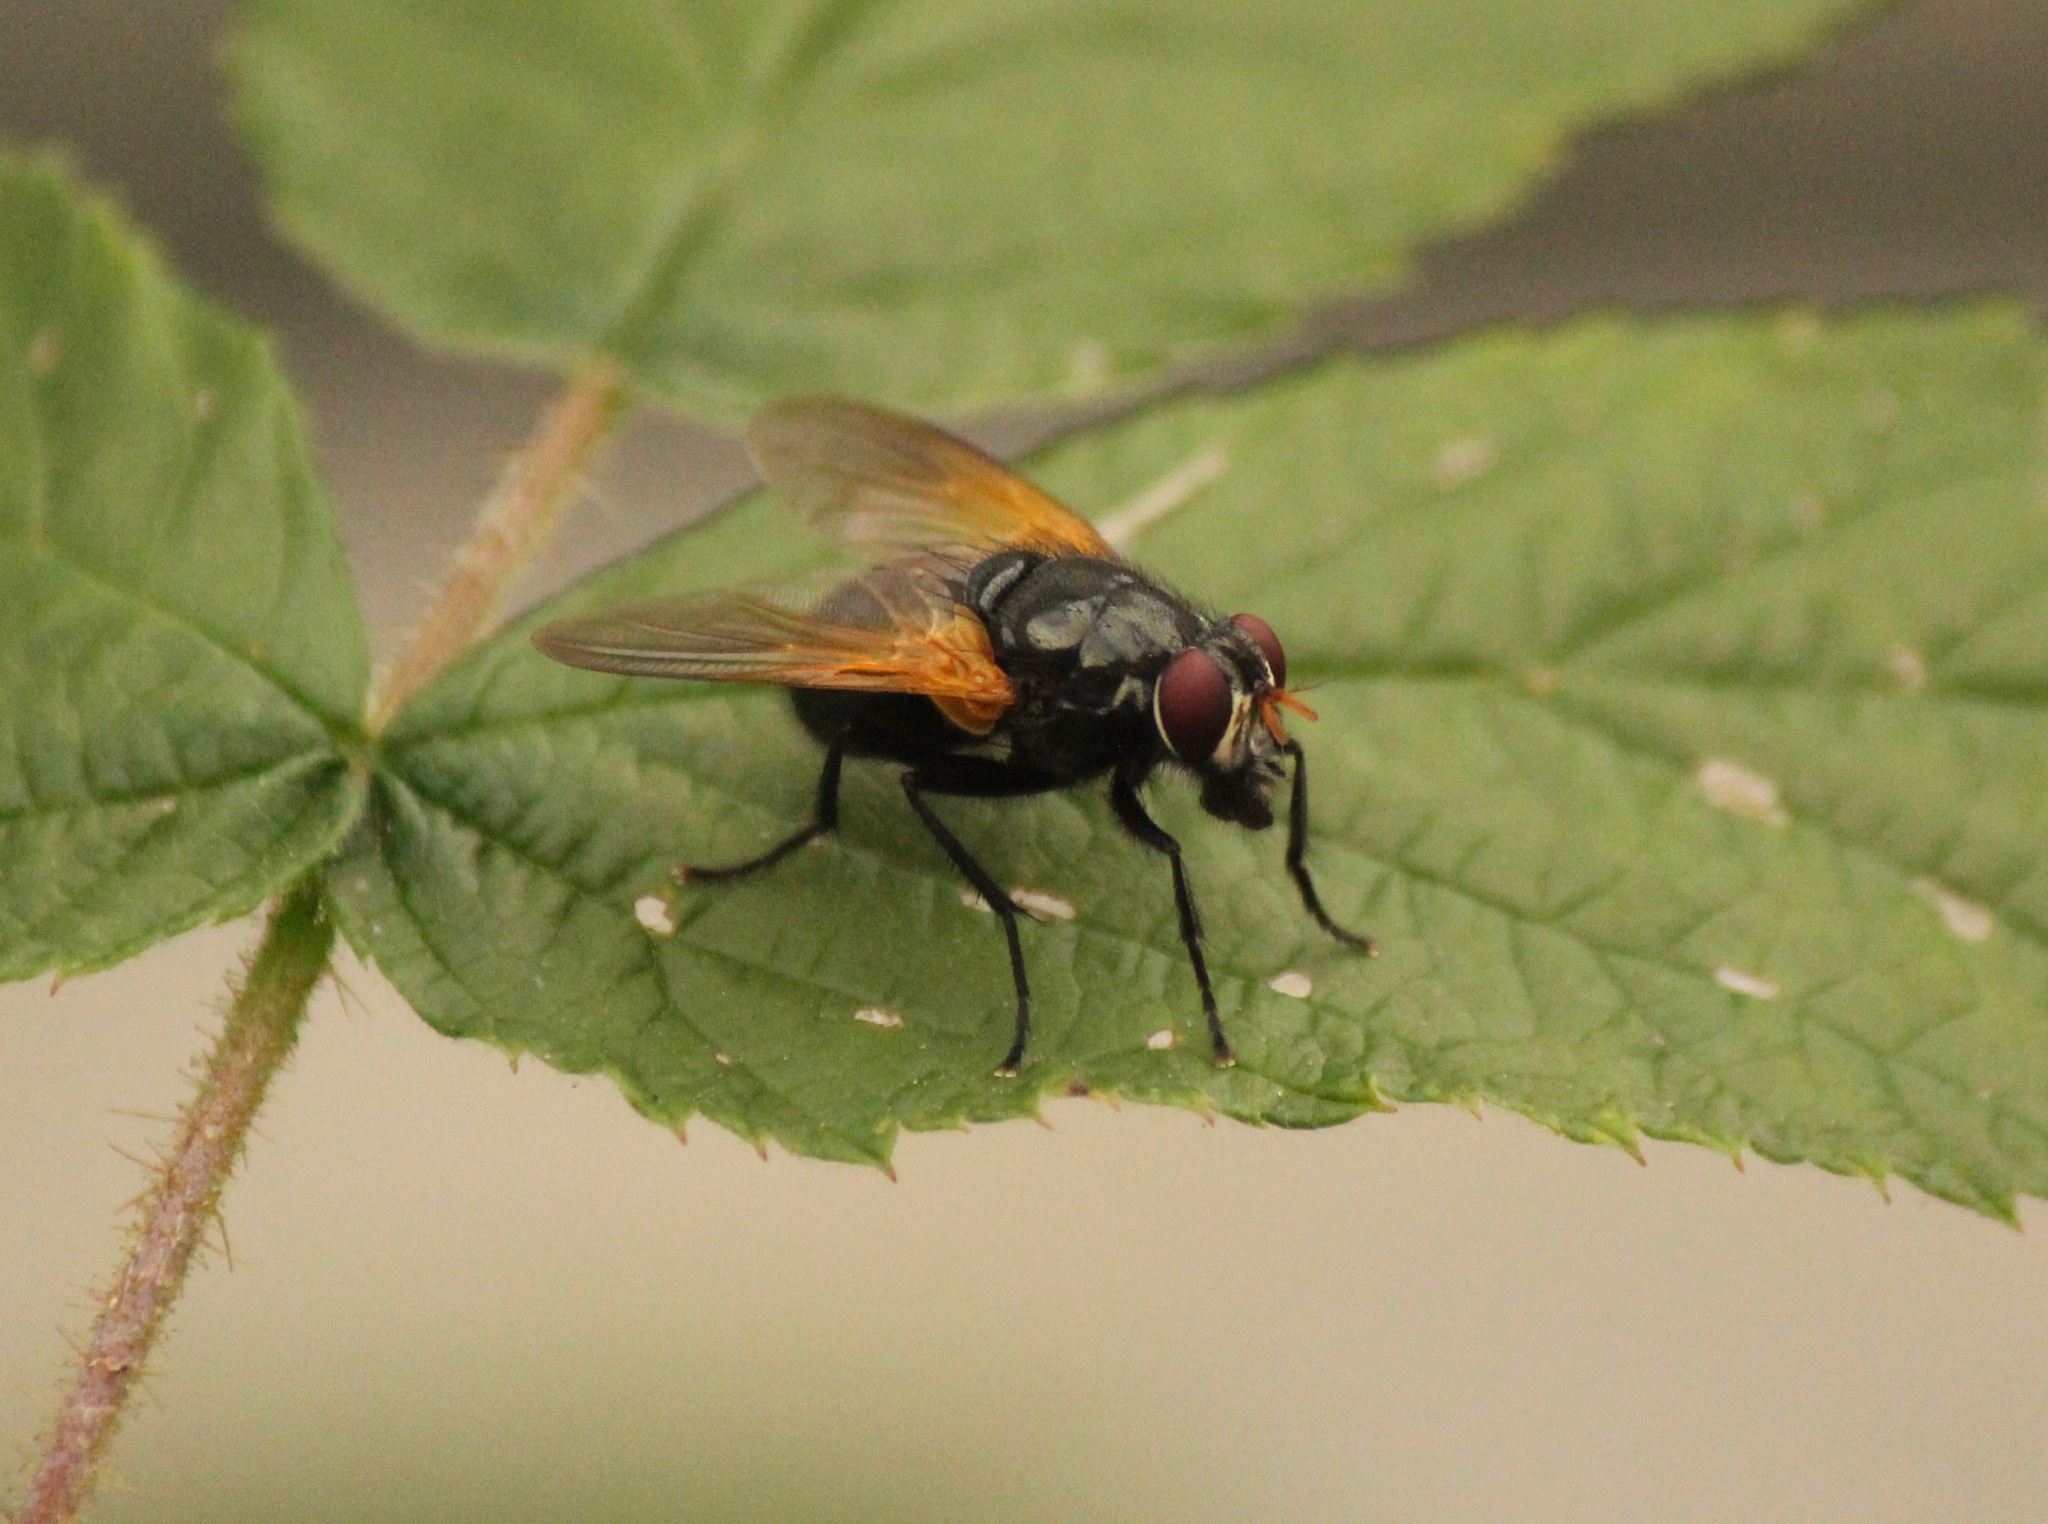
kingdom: Animalia
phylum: Arthropoda
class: Insecta
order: Diptera
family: Muscidae
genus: Mesembrina
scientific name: Mesembrina latreillii
